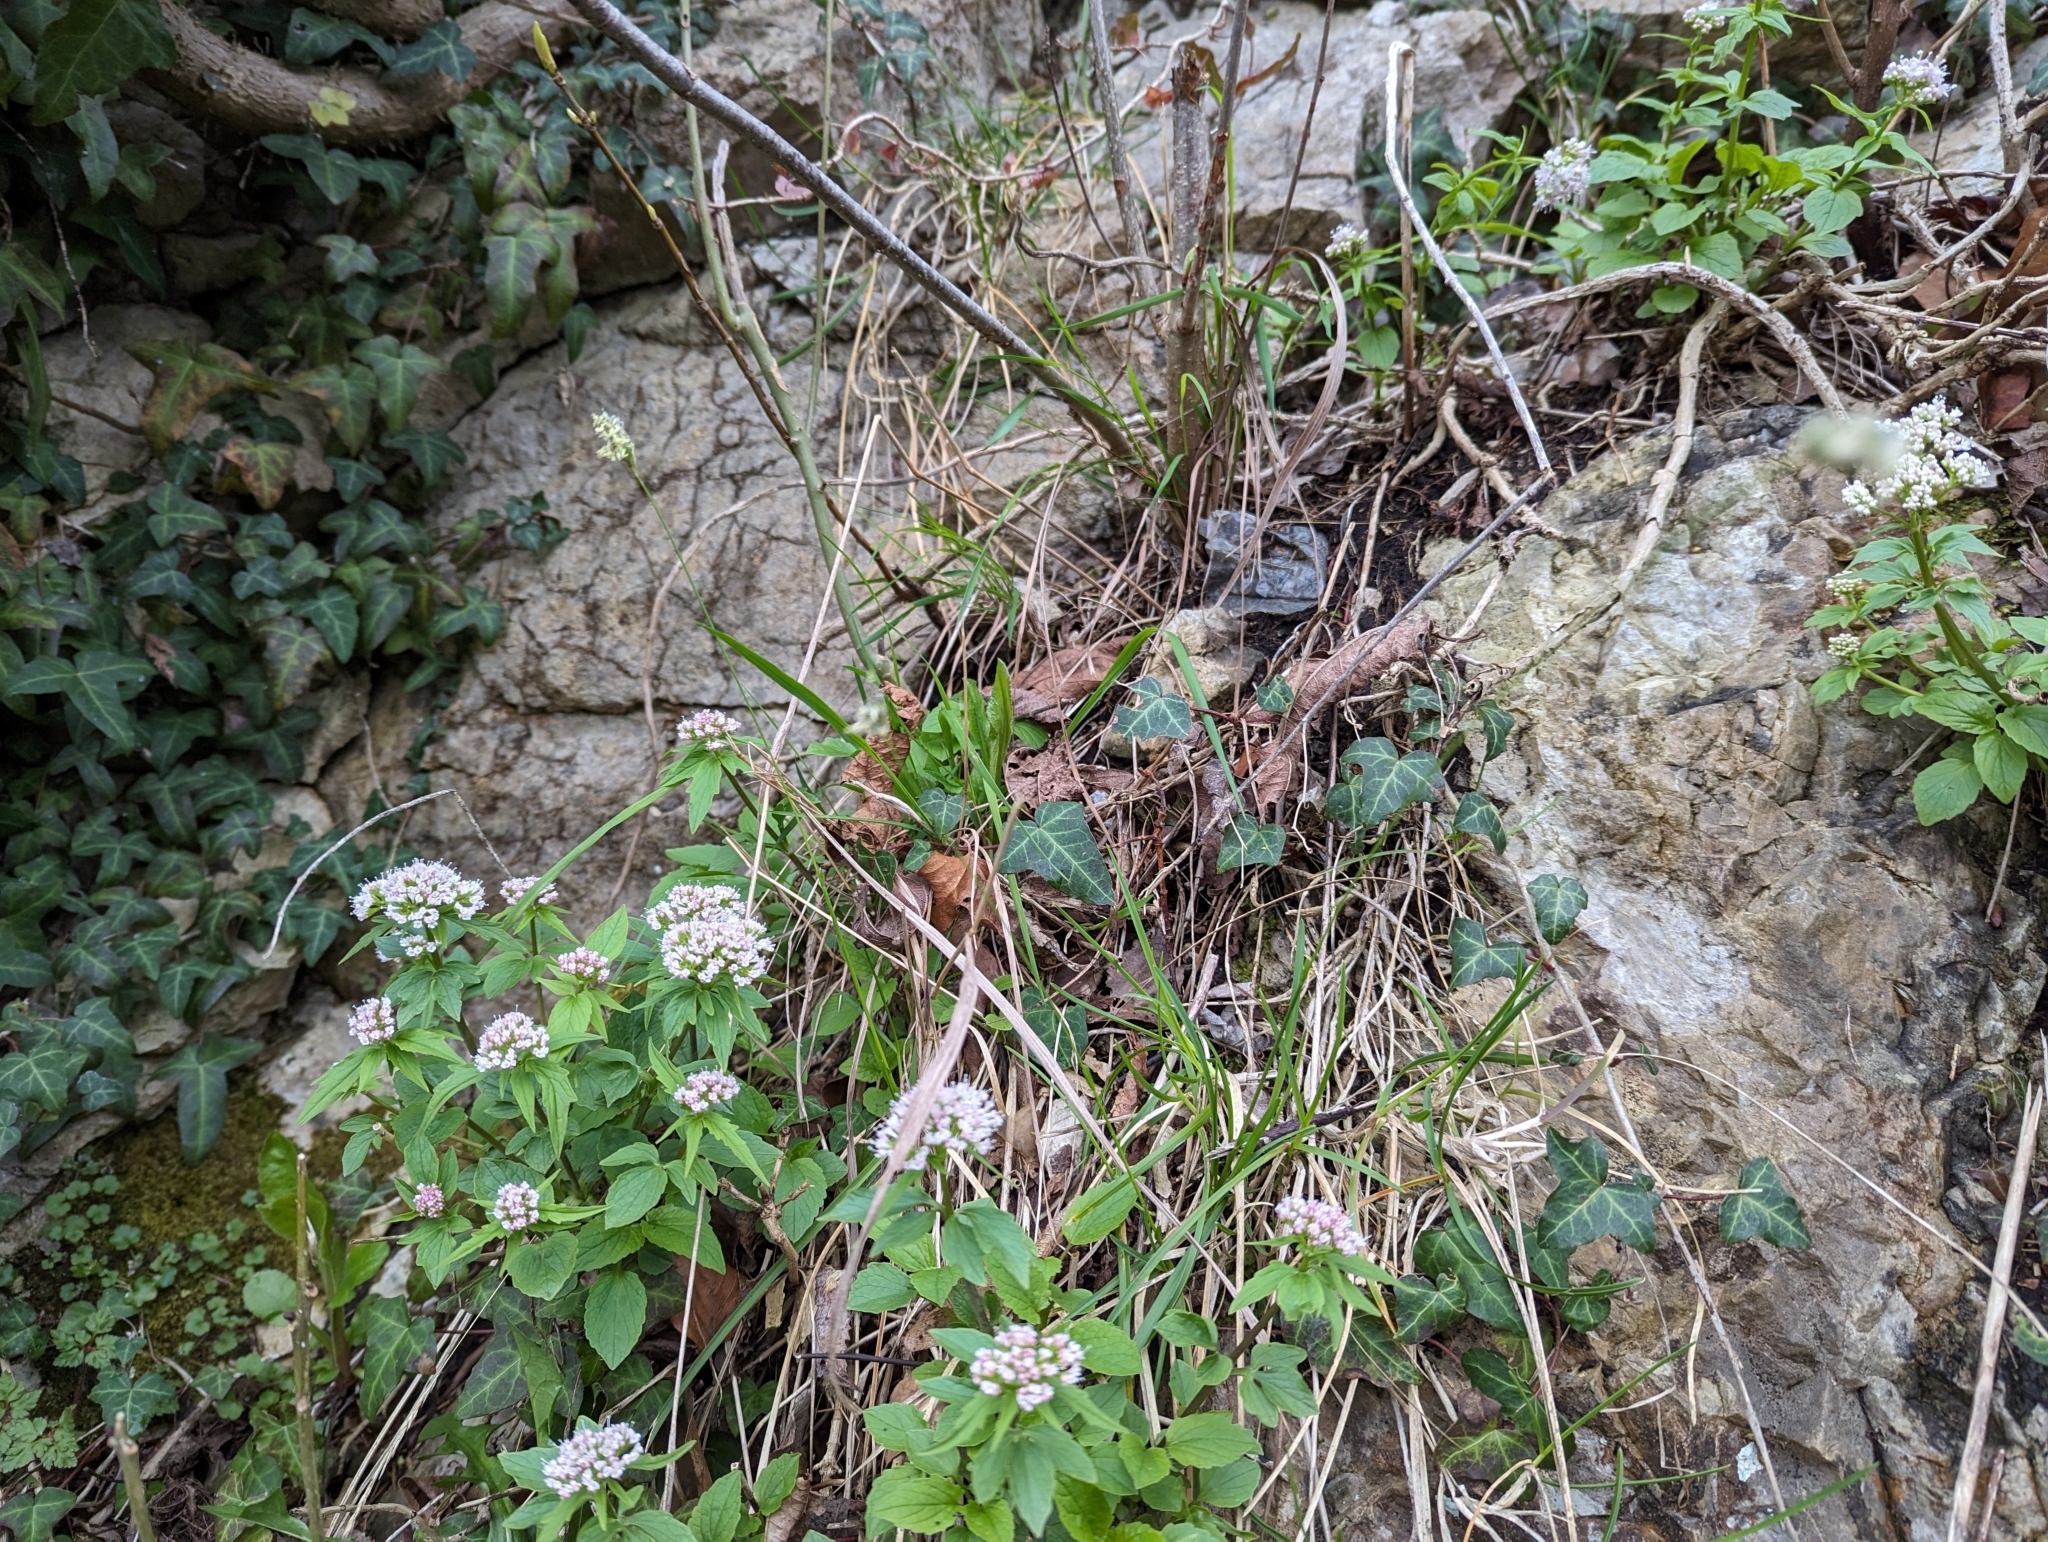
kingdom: Plantae
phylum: Tracheophyta
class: Liliopsida
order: Poales
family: Poaceae
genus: Sesleria
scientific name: Sesleria caerulea
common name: Blue moor-grass
